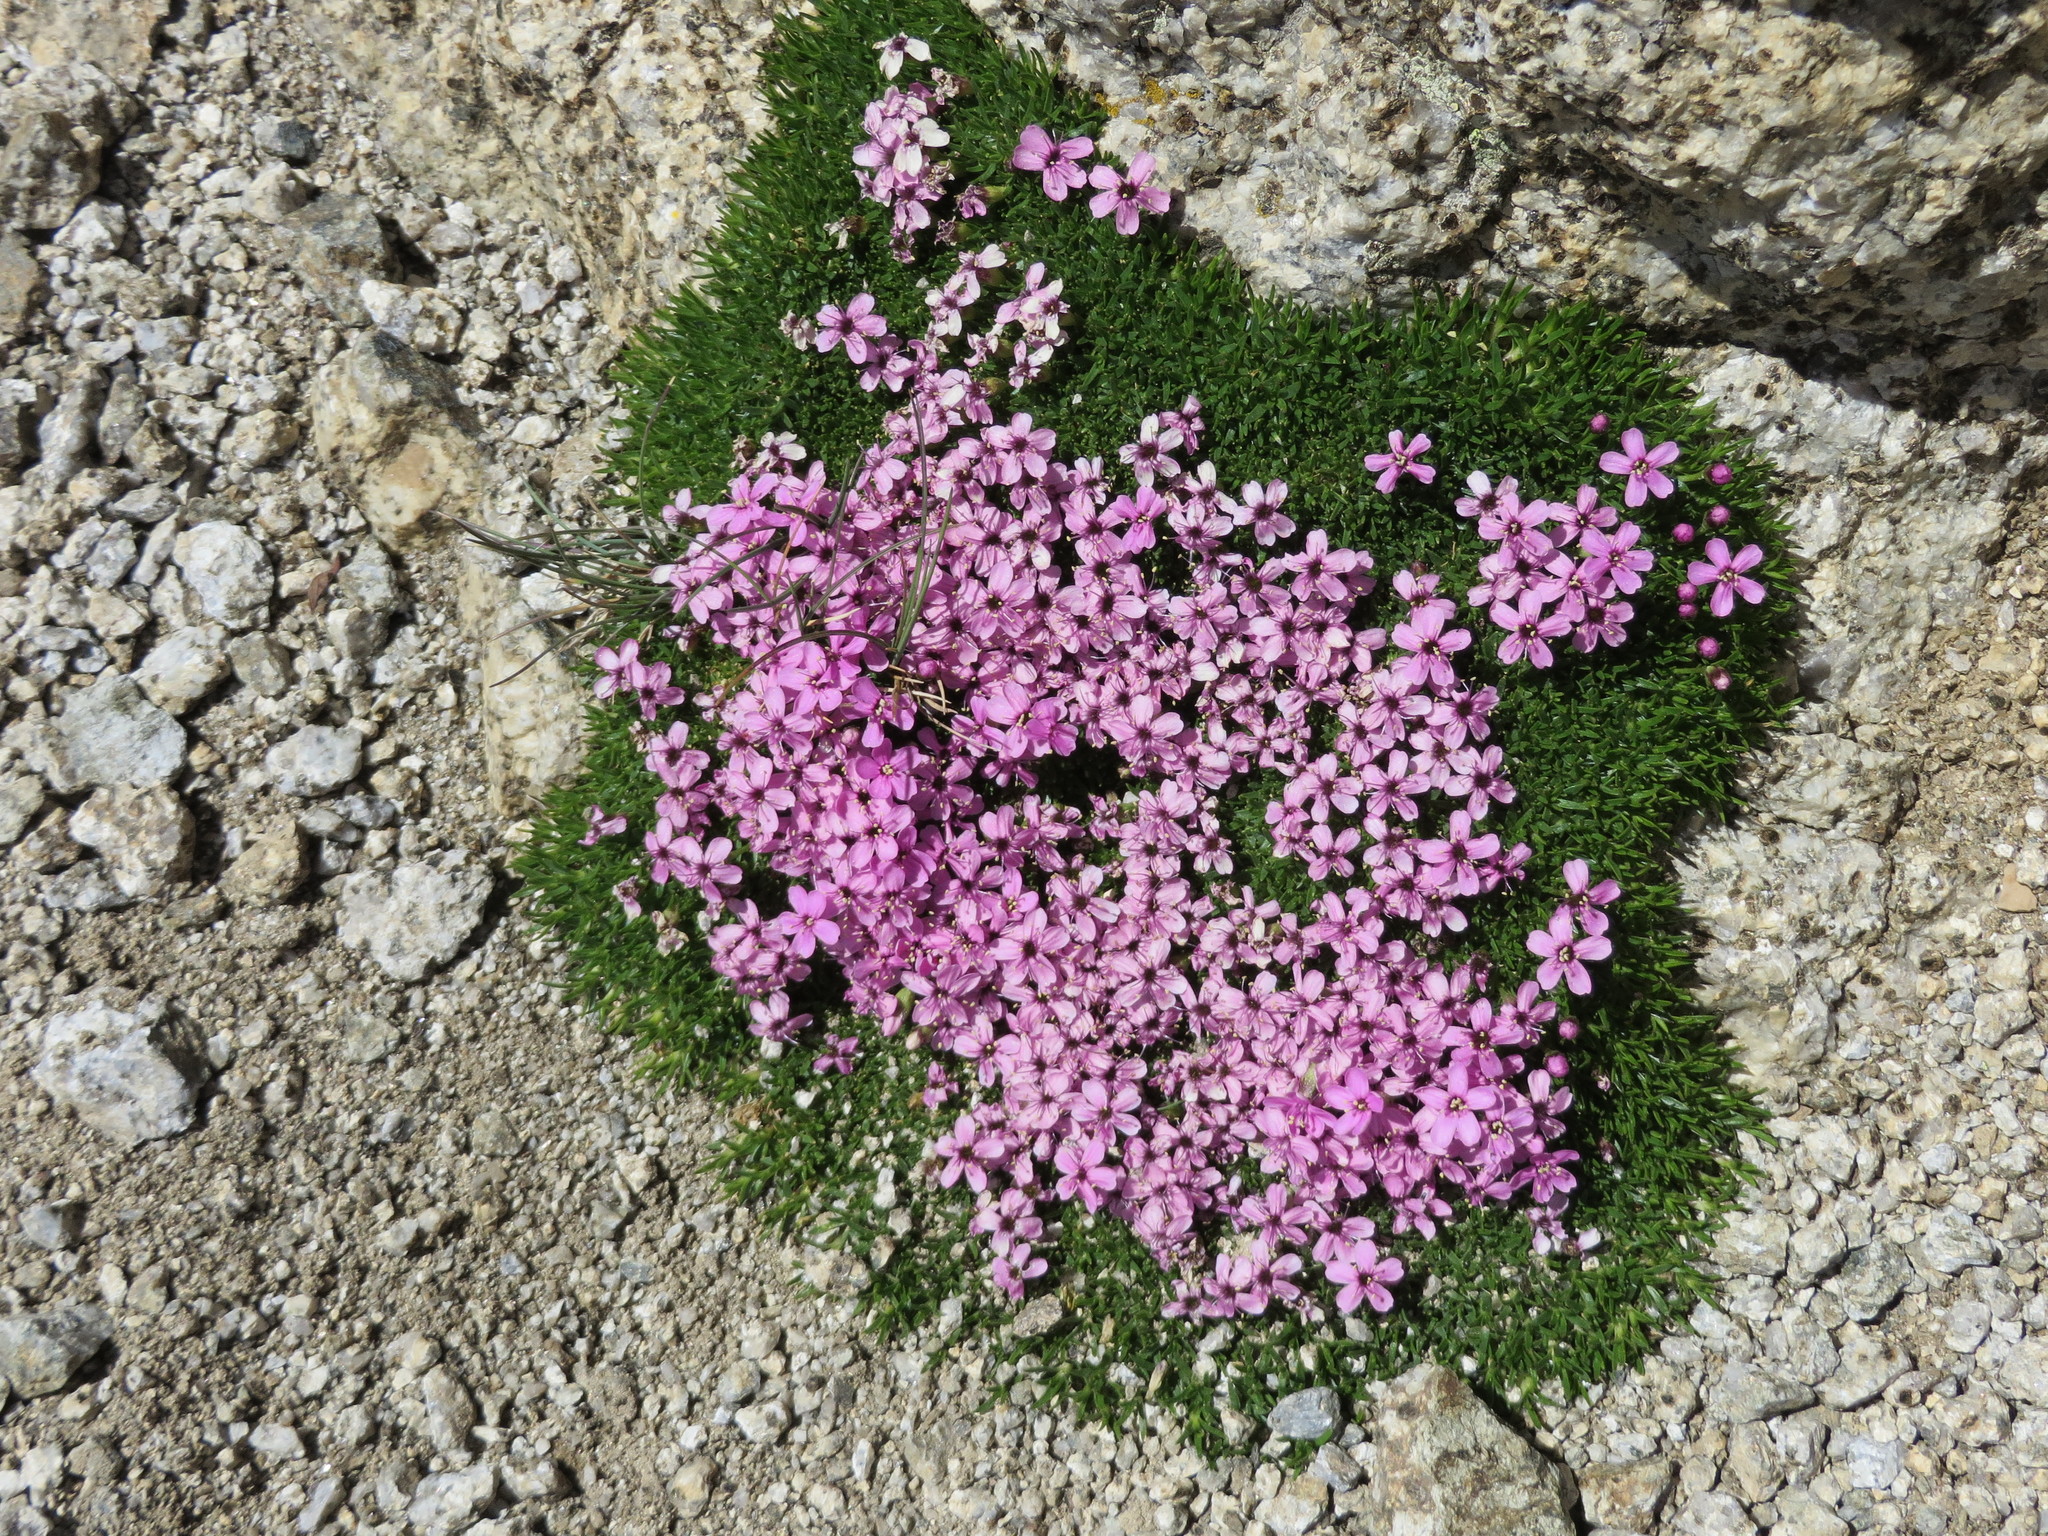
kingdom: Plantae
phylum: Tracheophyta
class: Magnoliopsida
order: Caryophyllales
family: Caryophyllaceae
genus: Silene
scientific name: Silene acaulis
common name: Moss campion
